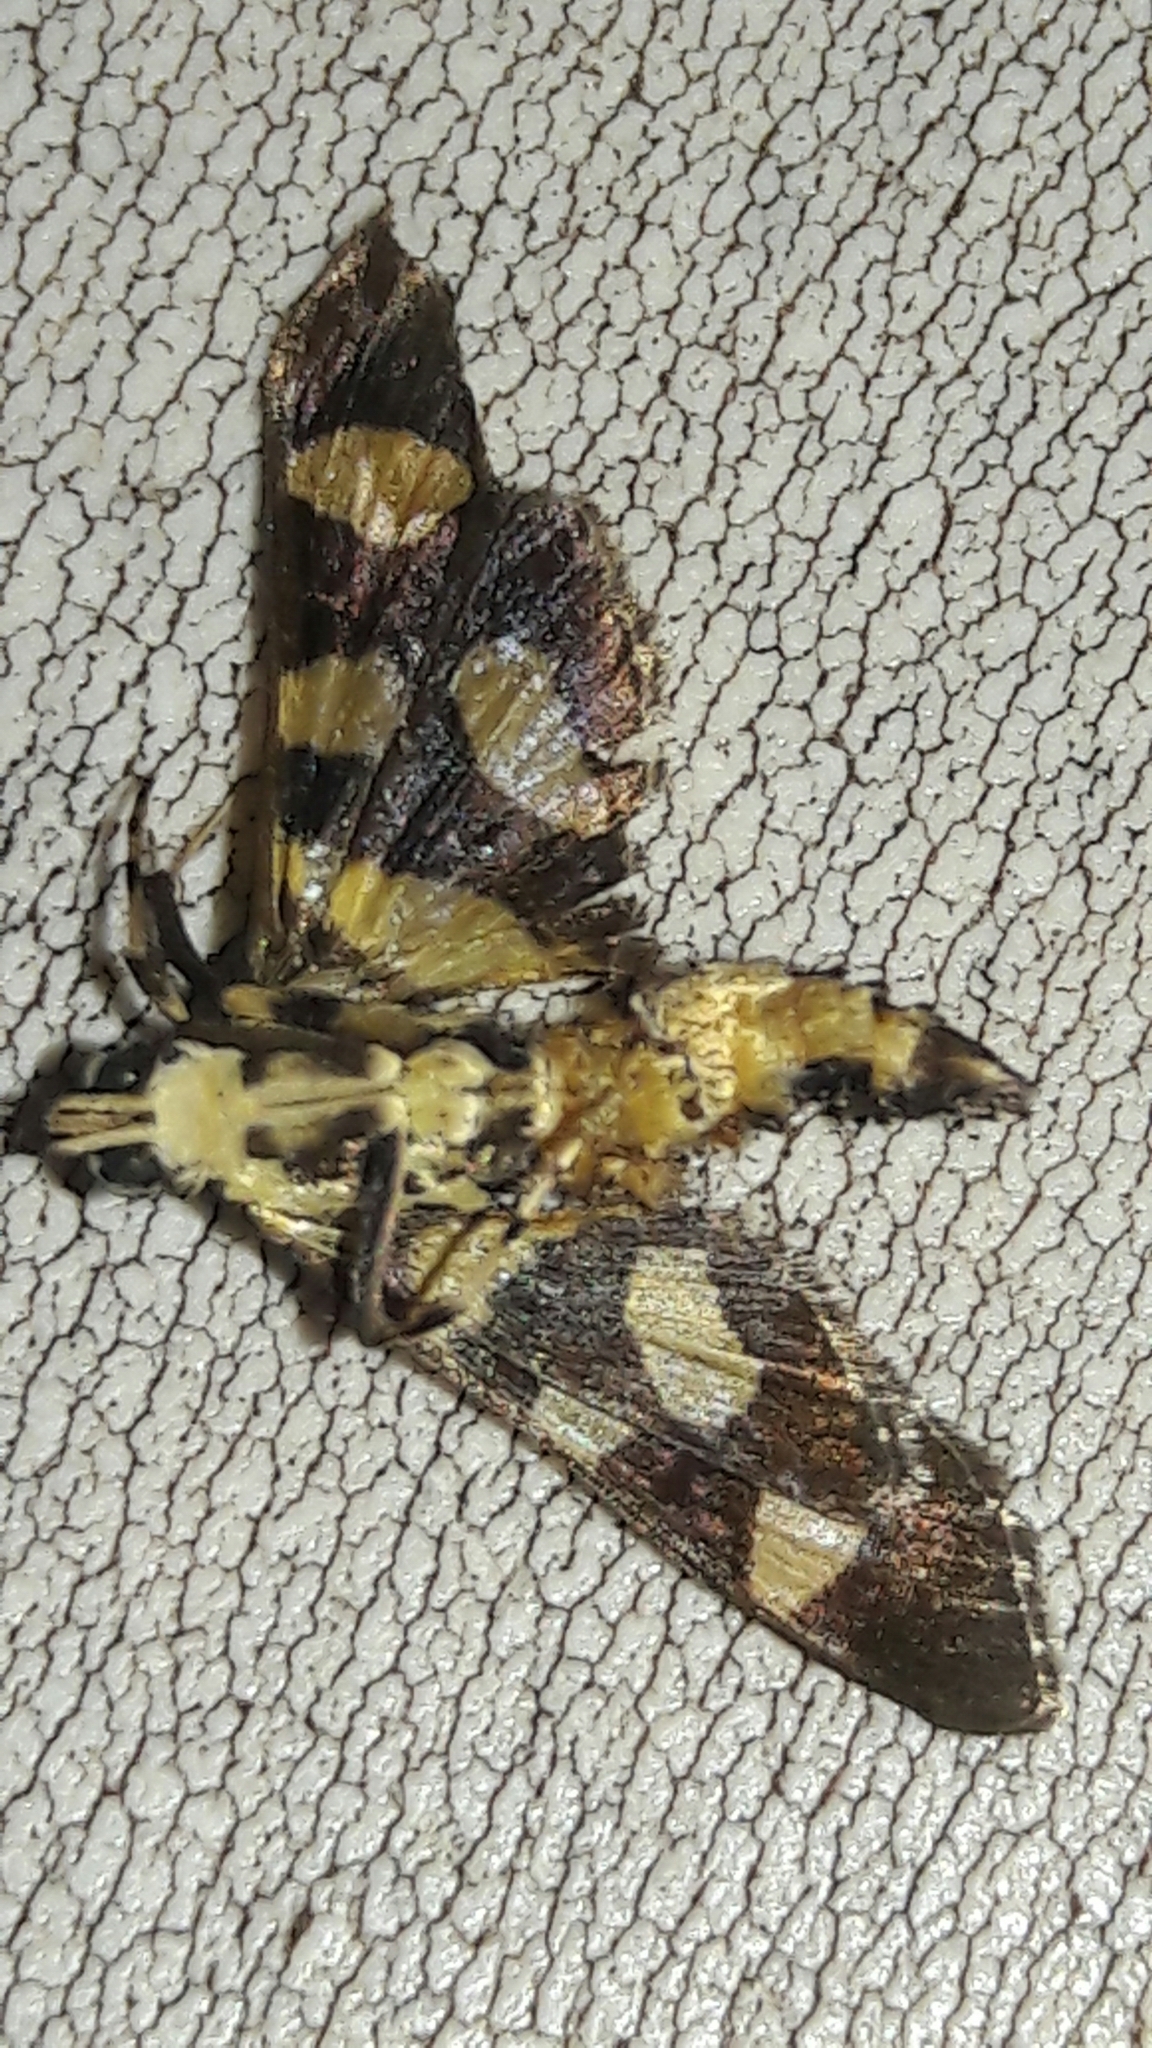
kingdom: Animalia
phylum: Arthropoda
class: Insecta
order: Lepidoptera
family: Crambidae
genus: Syngamia
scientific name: Syngamia florella
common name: Orange-spotted flower moth
